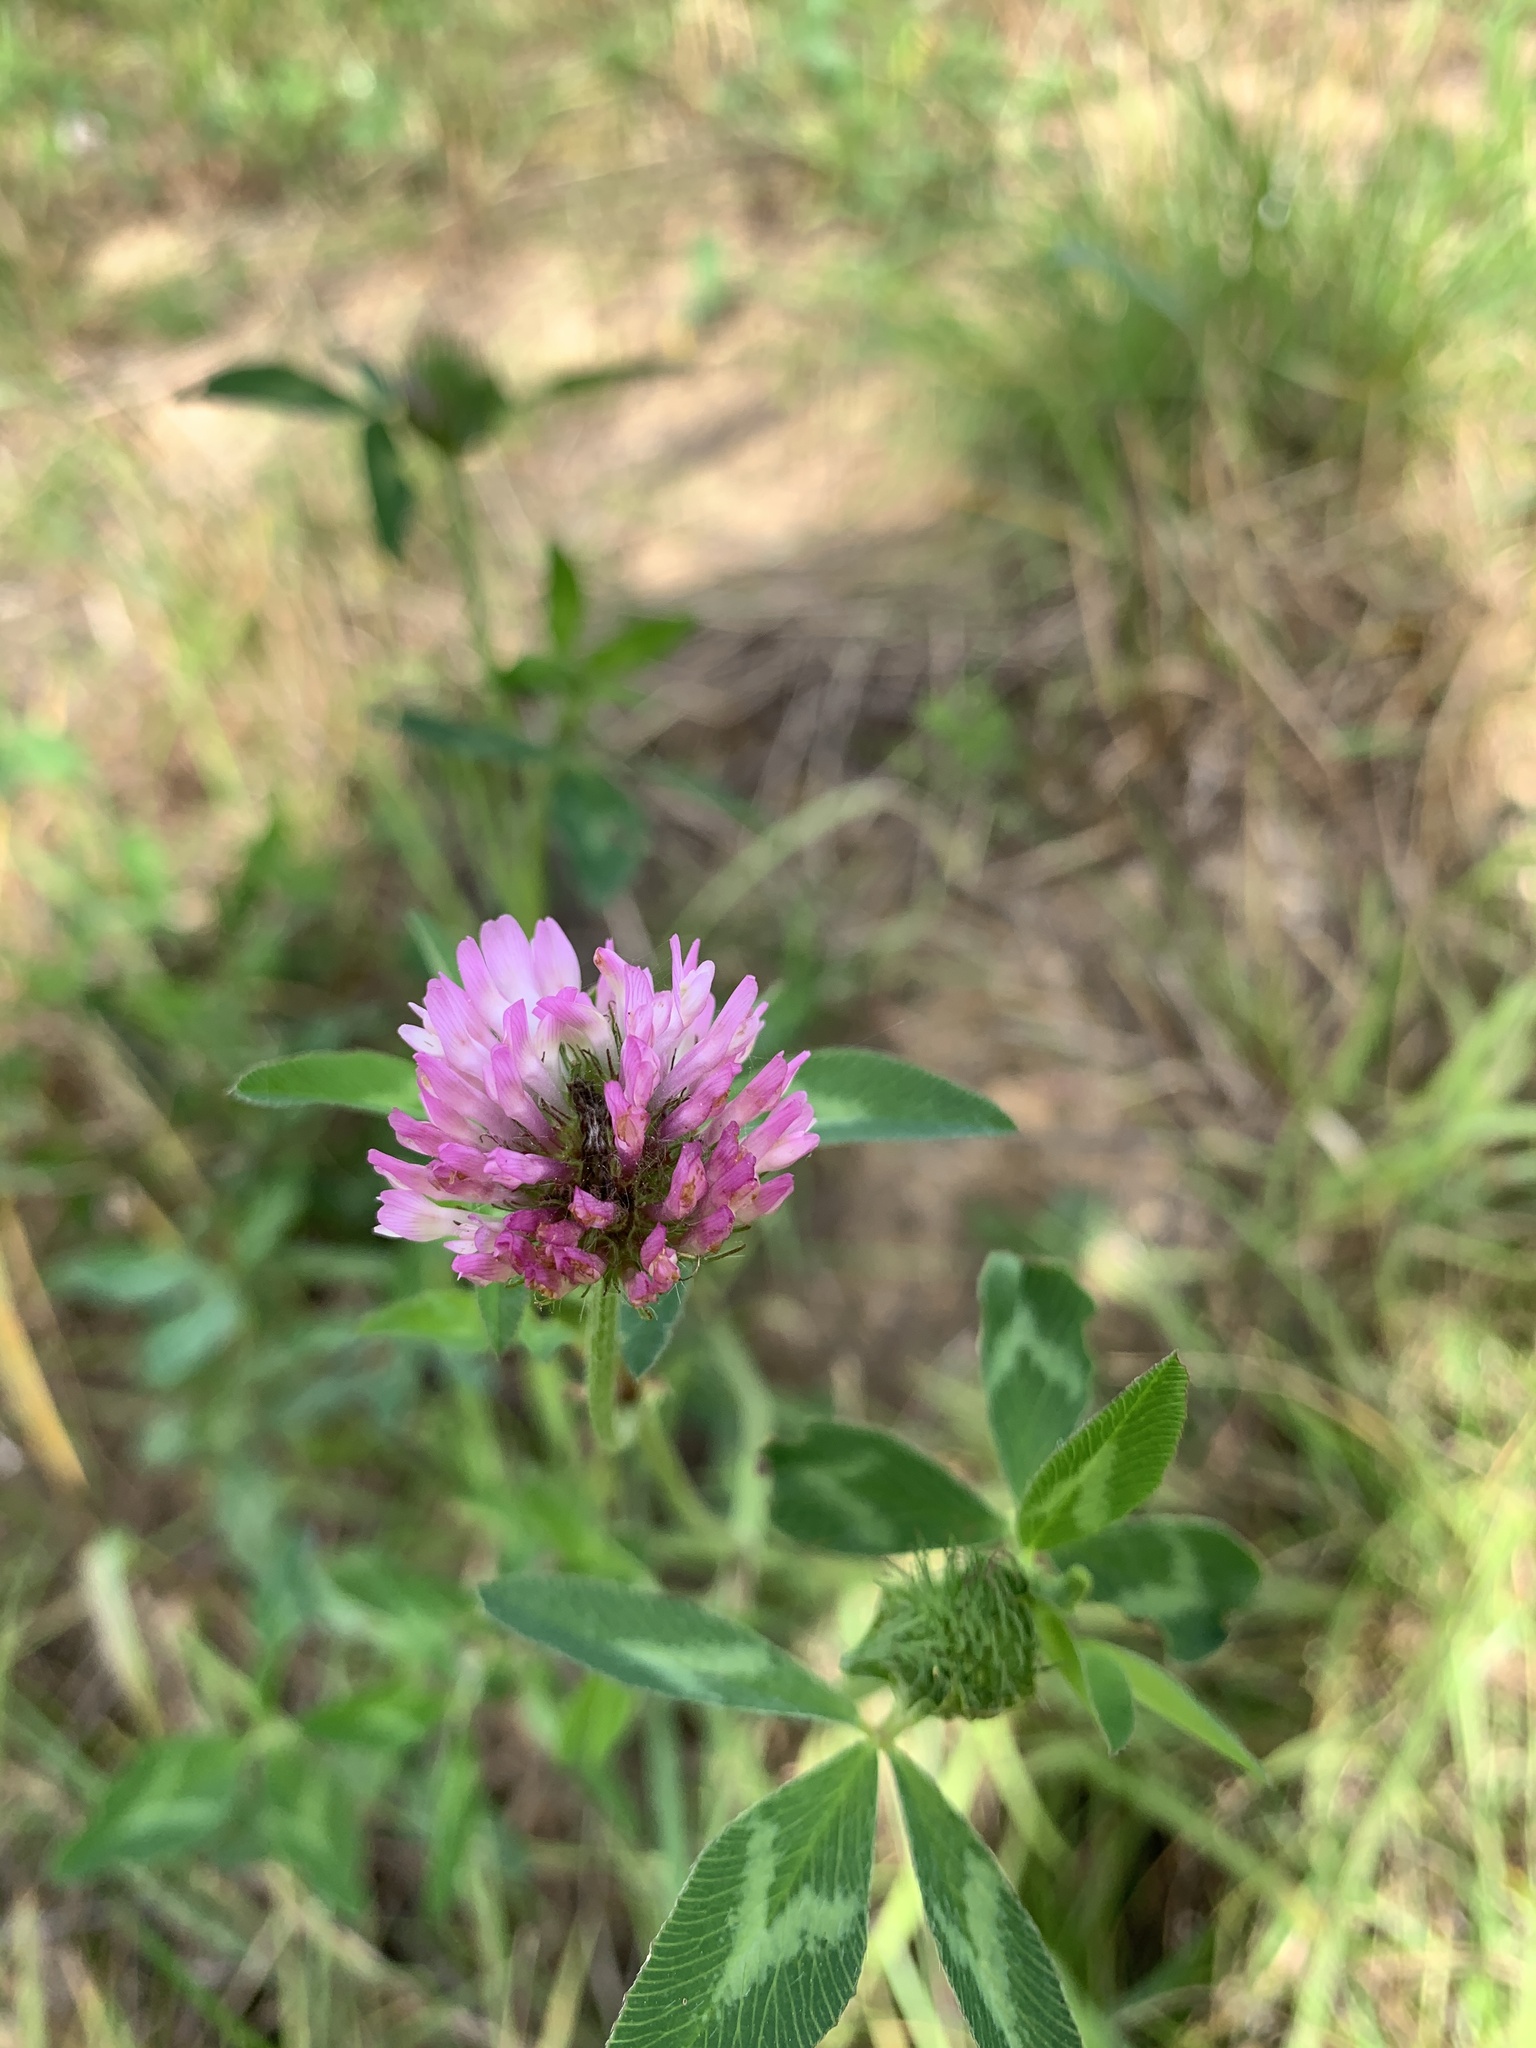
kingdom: Plantae
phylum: Tracheophyta
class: Magnoliopsida
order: Fabales
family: Fabaceae
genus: Trifolium
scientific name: Trifolium pratense
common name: Red clover
